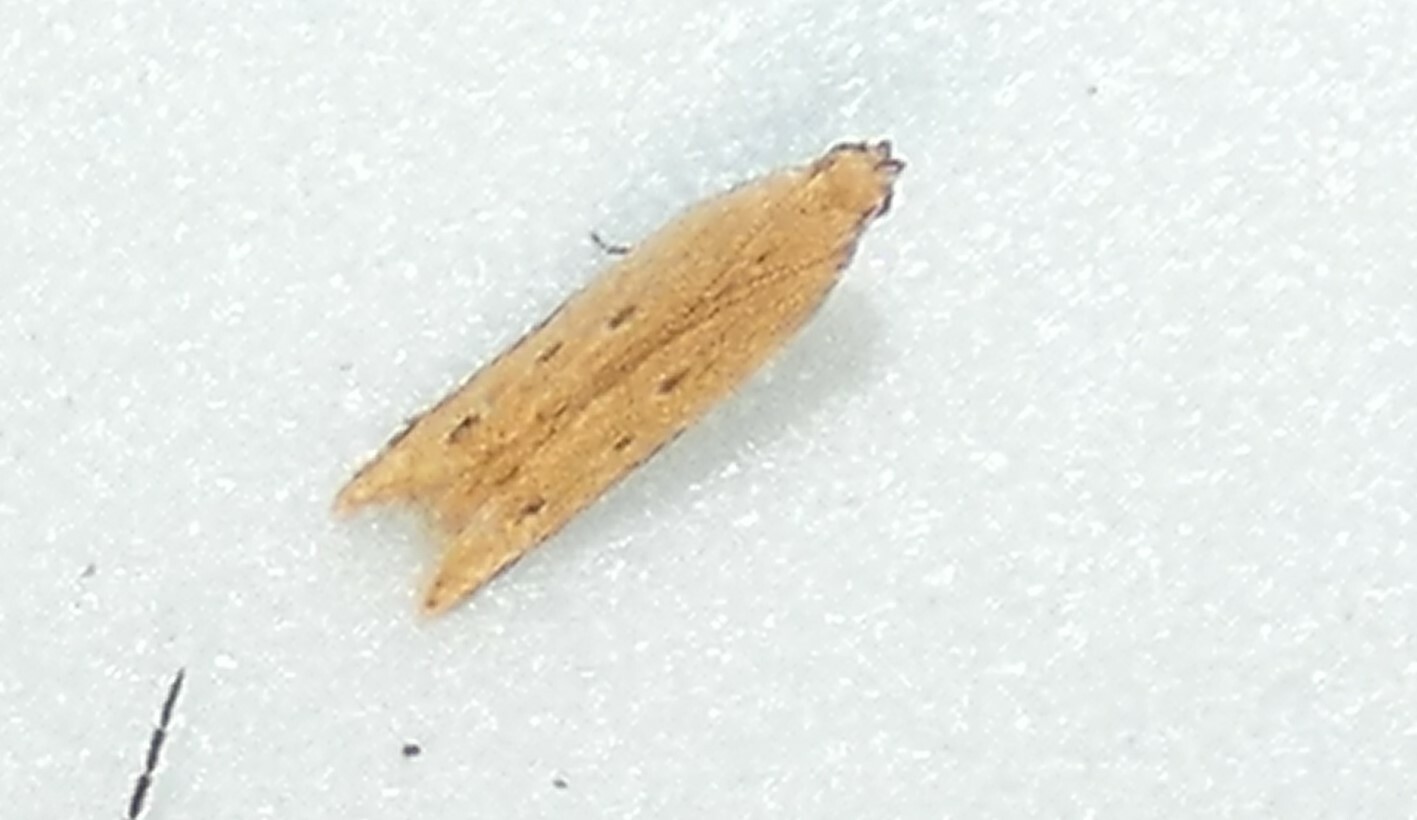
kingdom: Animalia
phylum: Arthropoda
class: Insecta
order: Lepidoptera
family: Gelechiidae
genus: Mesophleps
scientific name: Mesophleps adustipennis
